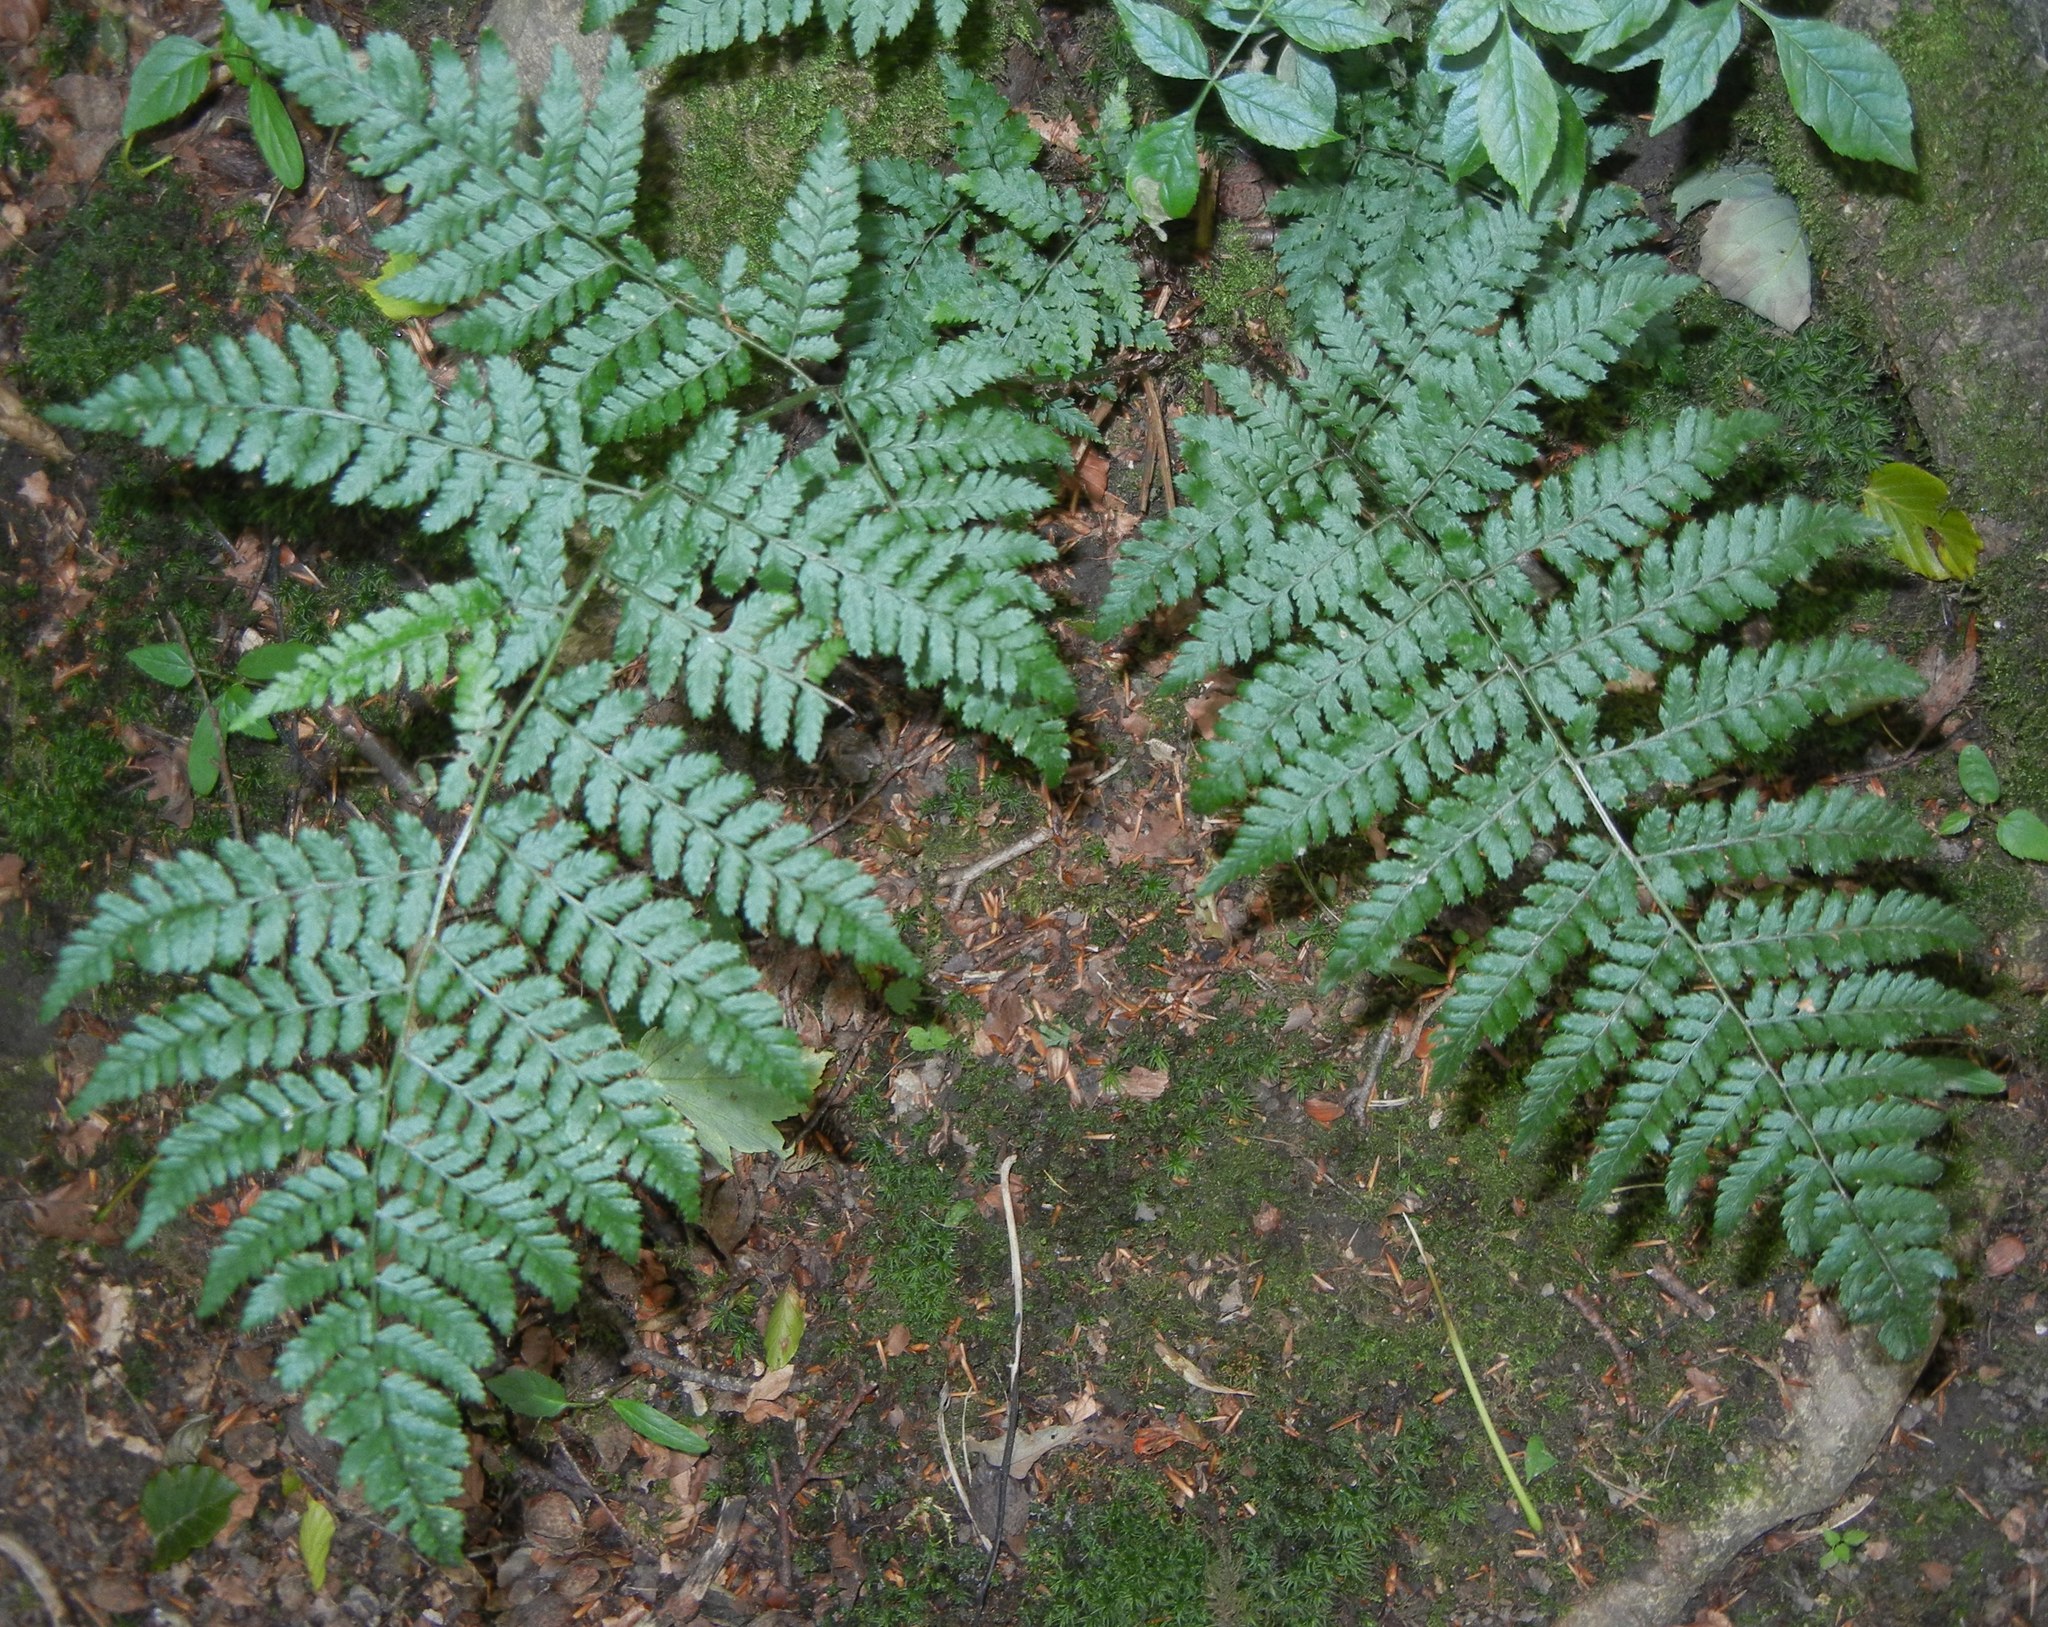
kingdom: Plantae
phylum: Tracheophyta
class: Polypodiopsida
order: Polypodiales
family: Dryopteridaceae
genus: Dryopteris
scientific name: Dryopteris dilatata
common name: Broad buckler-fern
